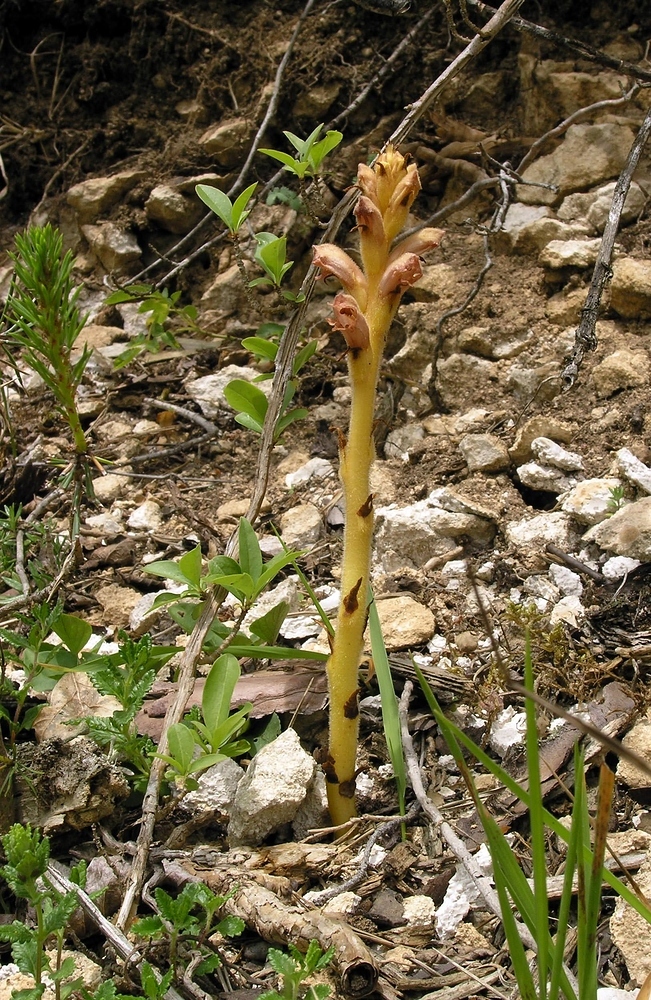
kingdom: Plantae
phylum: Tracheophyta
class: Magnoliopsida
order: Lamiales
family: Orobanchaceae
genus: Orobanche
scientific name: Orobanche teucrii
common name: Germander broomrape
